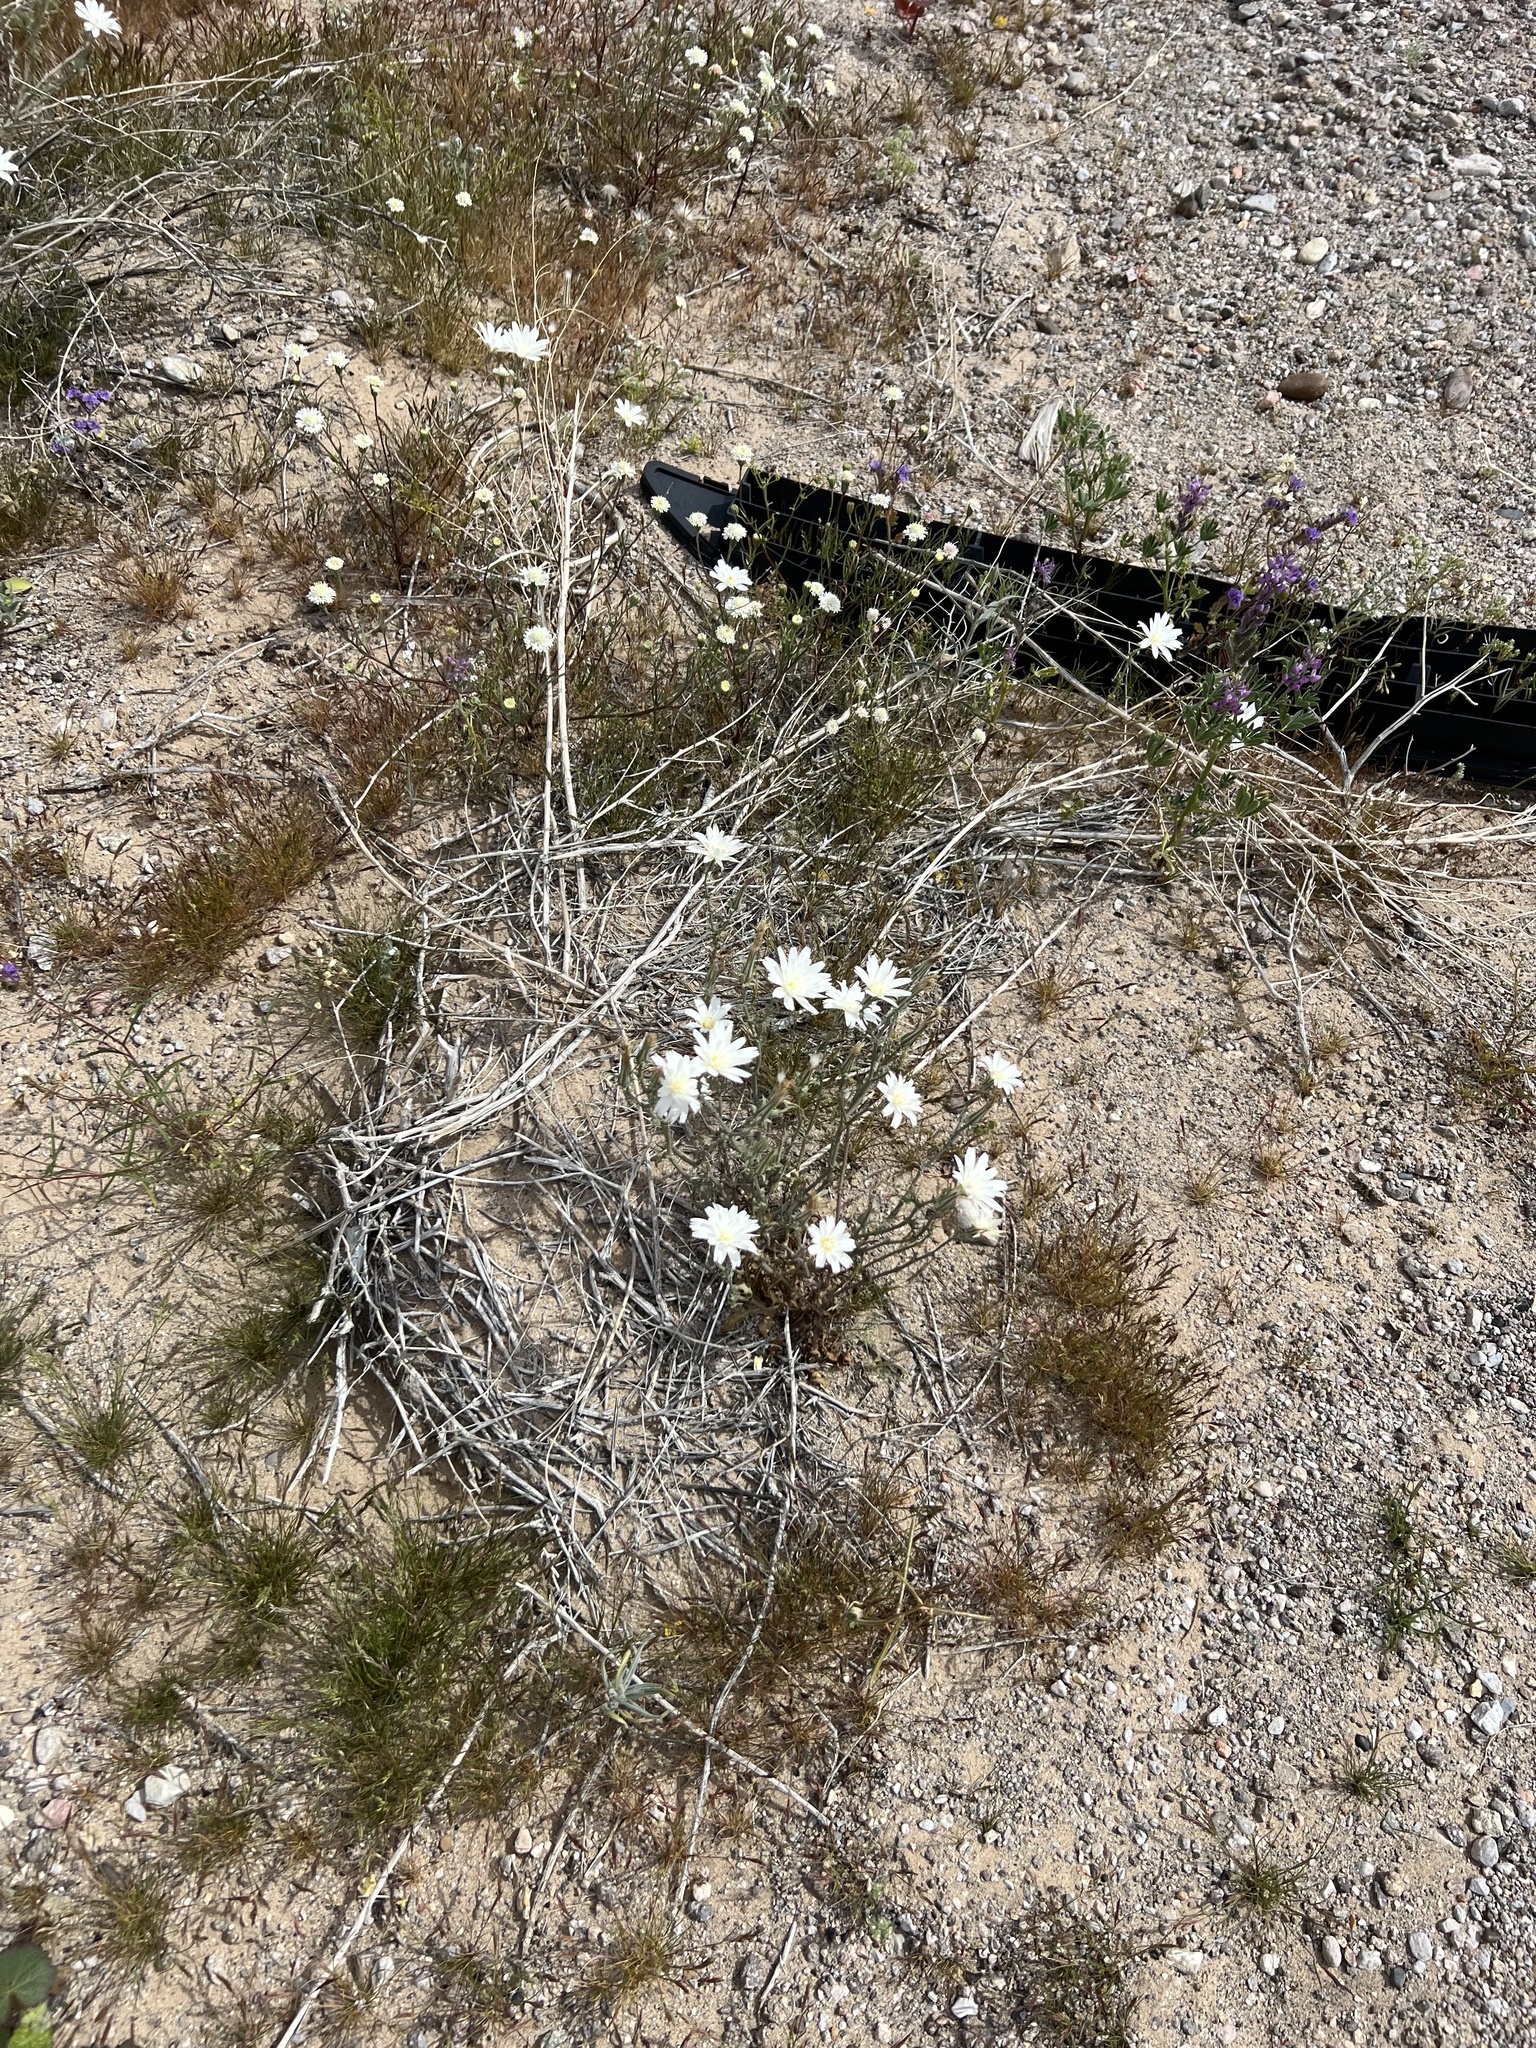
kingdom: Plantae
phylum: Tracheophyta
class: Magnoliopsida
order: Asterales
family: Asteraceae
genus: Rafinesquia
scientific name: Rafinesquia neomexicana
